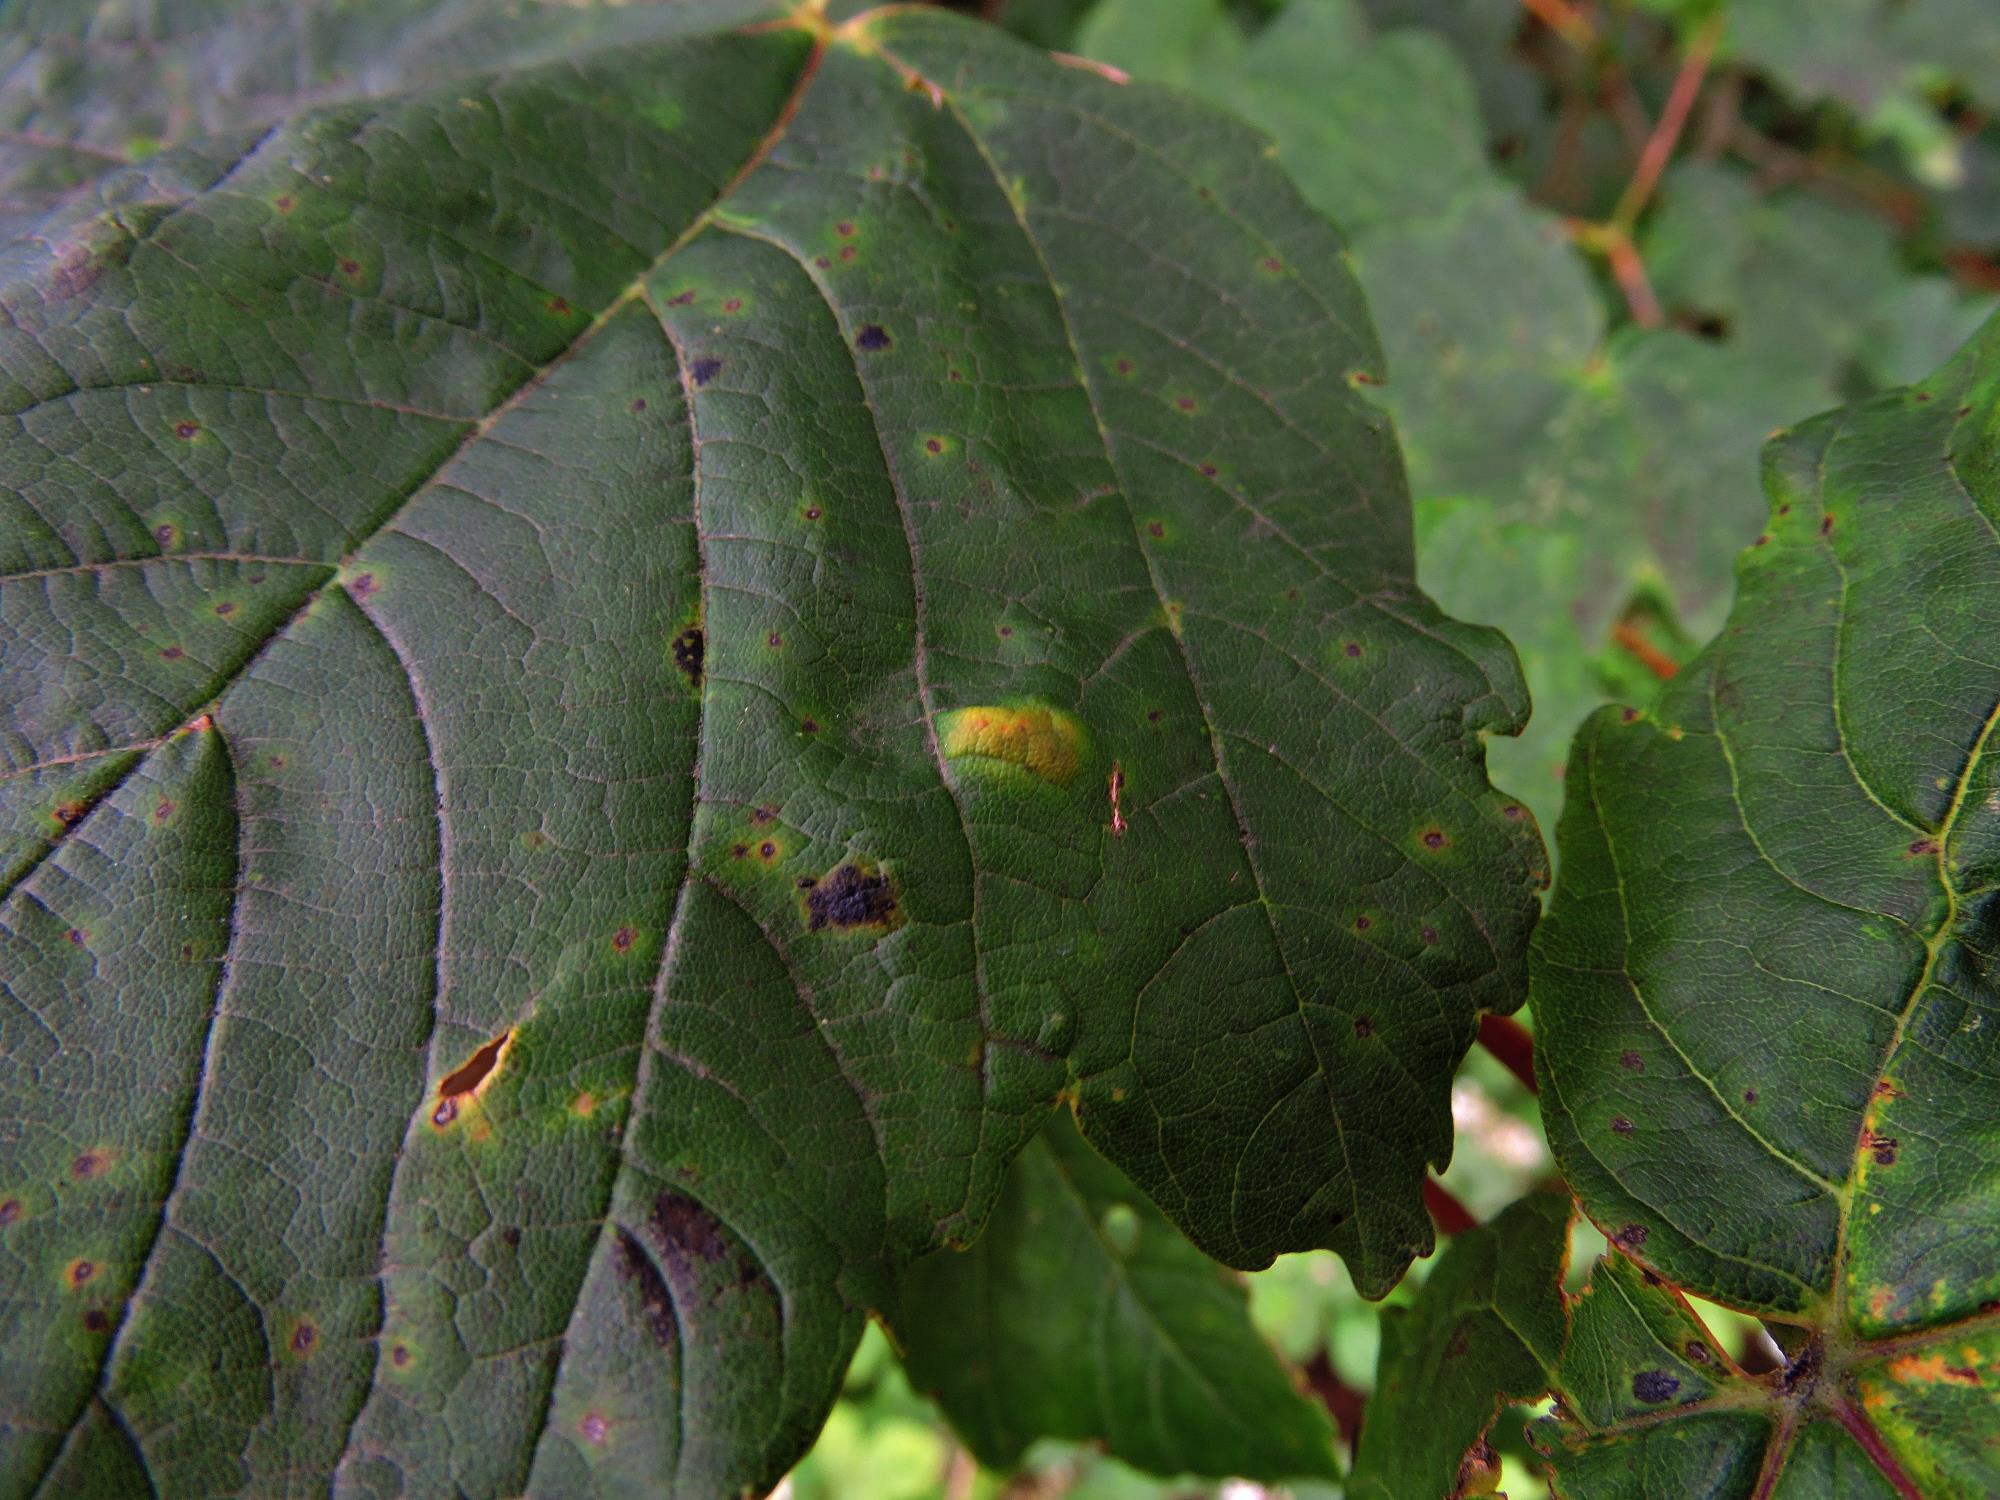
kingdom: Animalia
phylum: Arthropoda
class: Arachnida
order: Trombidiformes
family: Eriophyidae
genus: Aceria
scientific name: Aceria pseudoplatani
